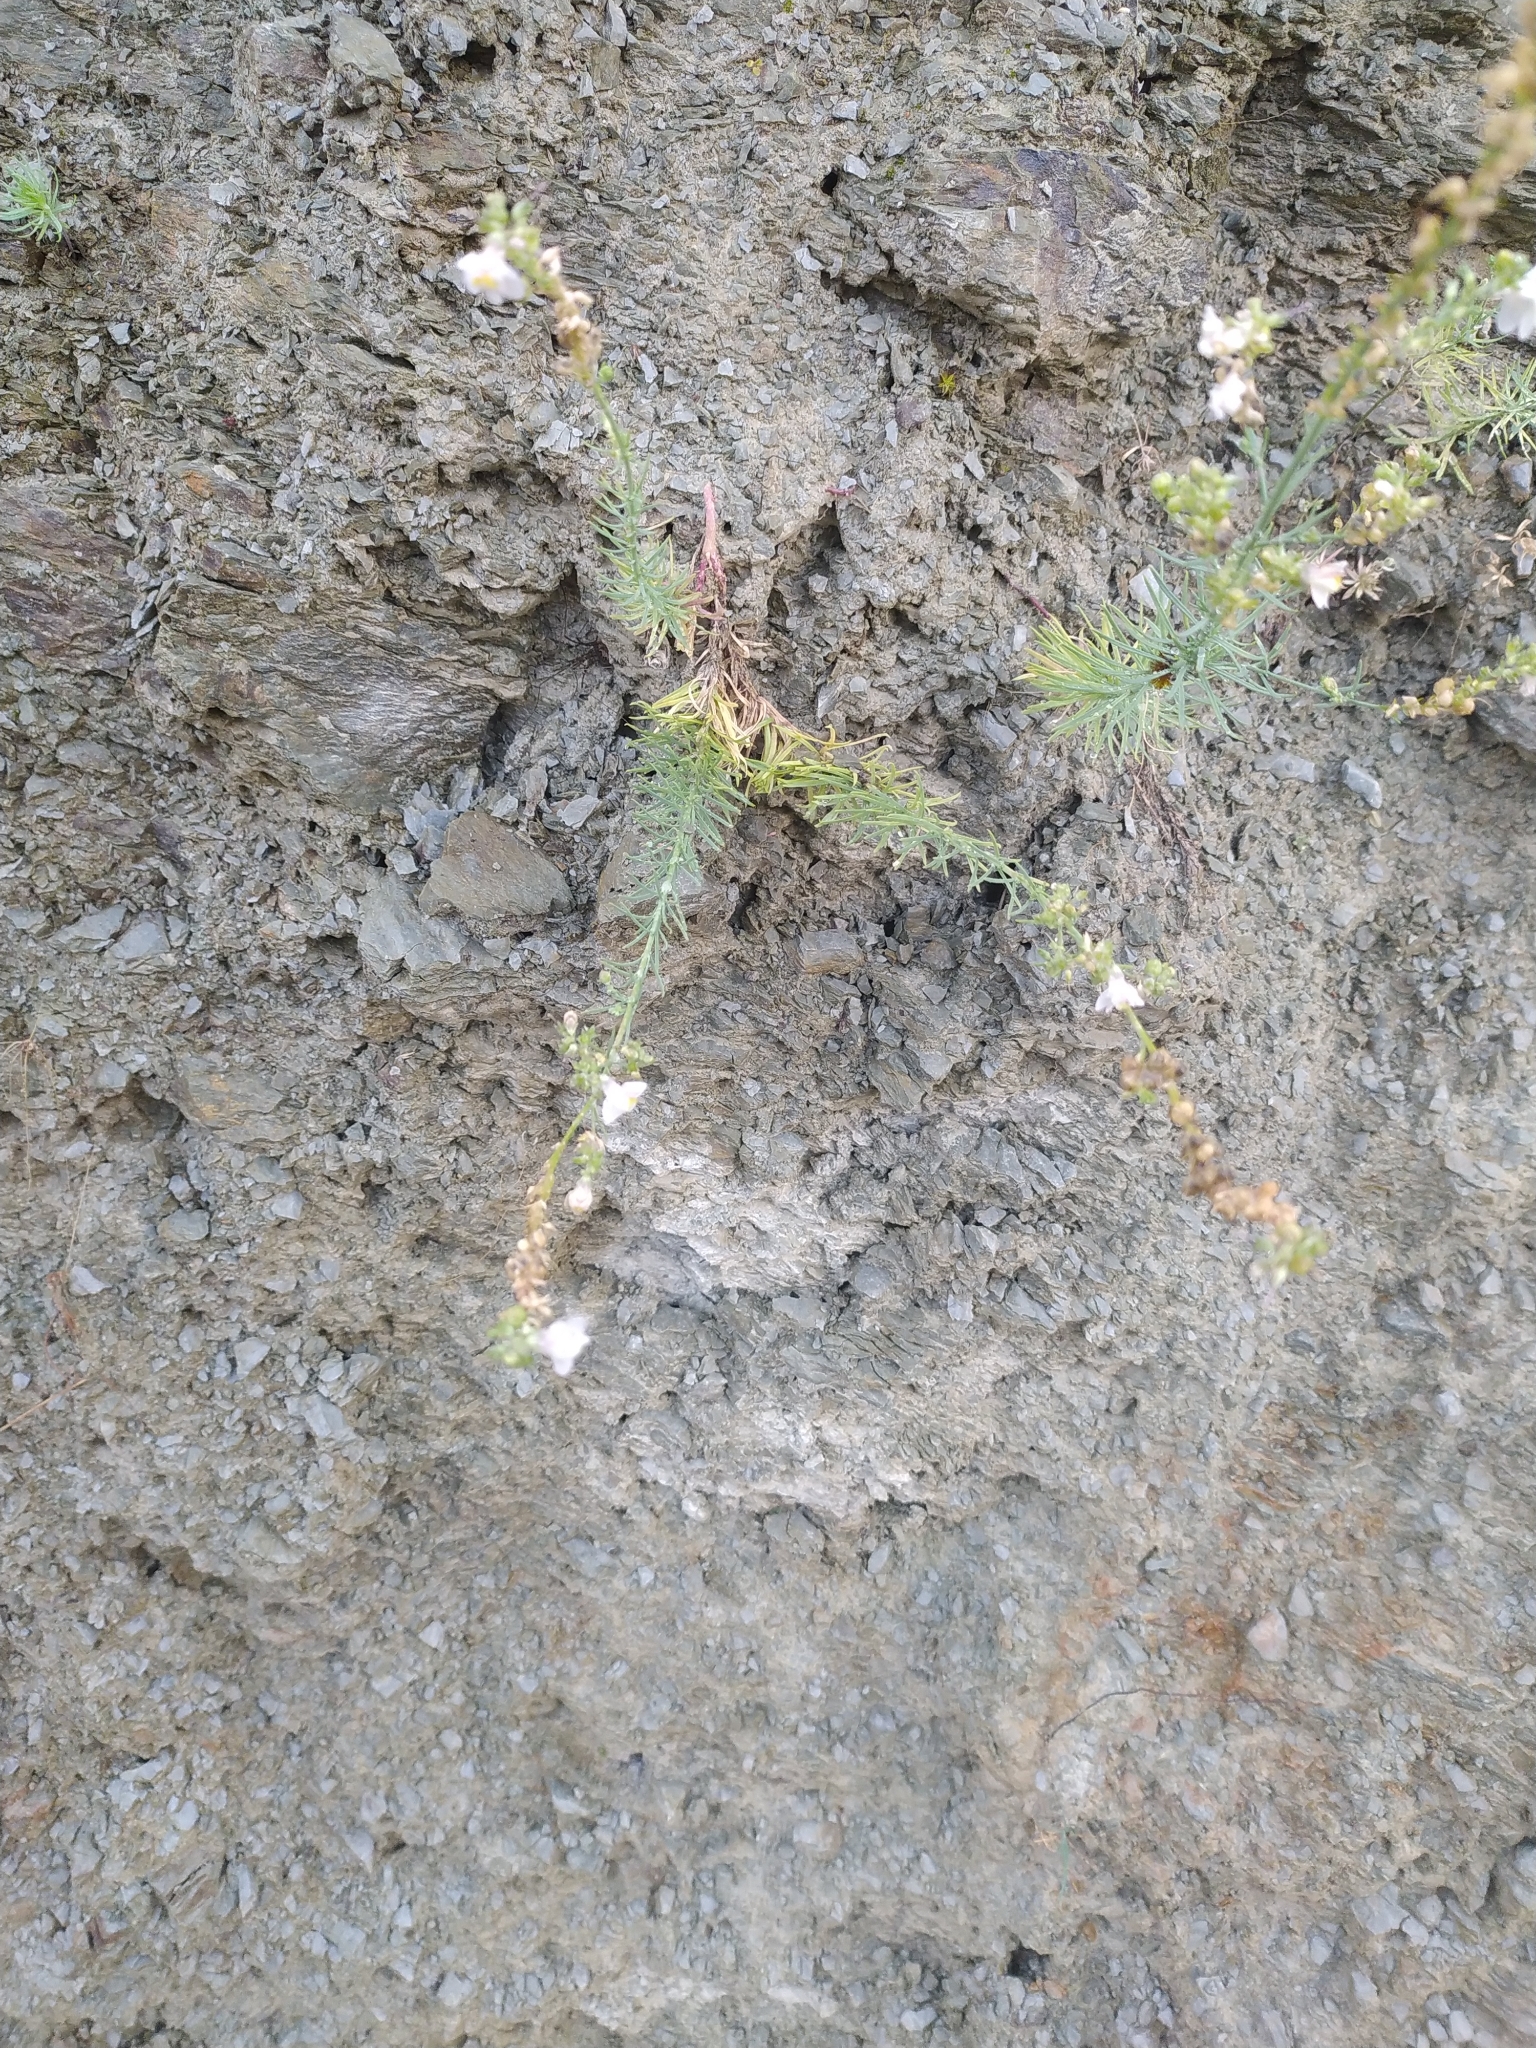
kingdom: Plantae
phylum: Tracheophyta
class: Magnoliopsida
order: Lamiales
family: Plantaginaceae
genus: Linaria
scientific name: Linaria repens
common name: Pale toadflax
